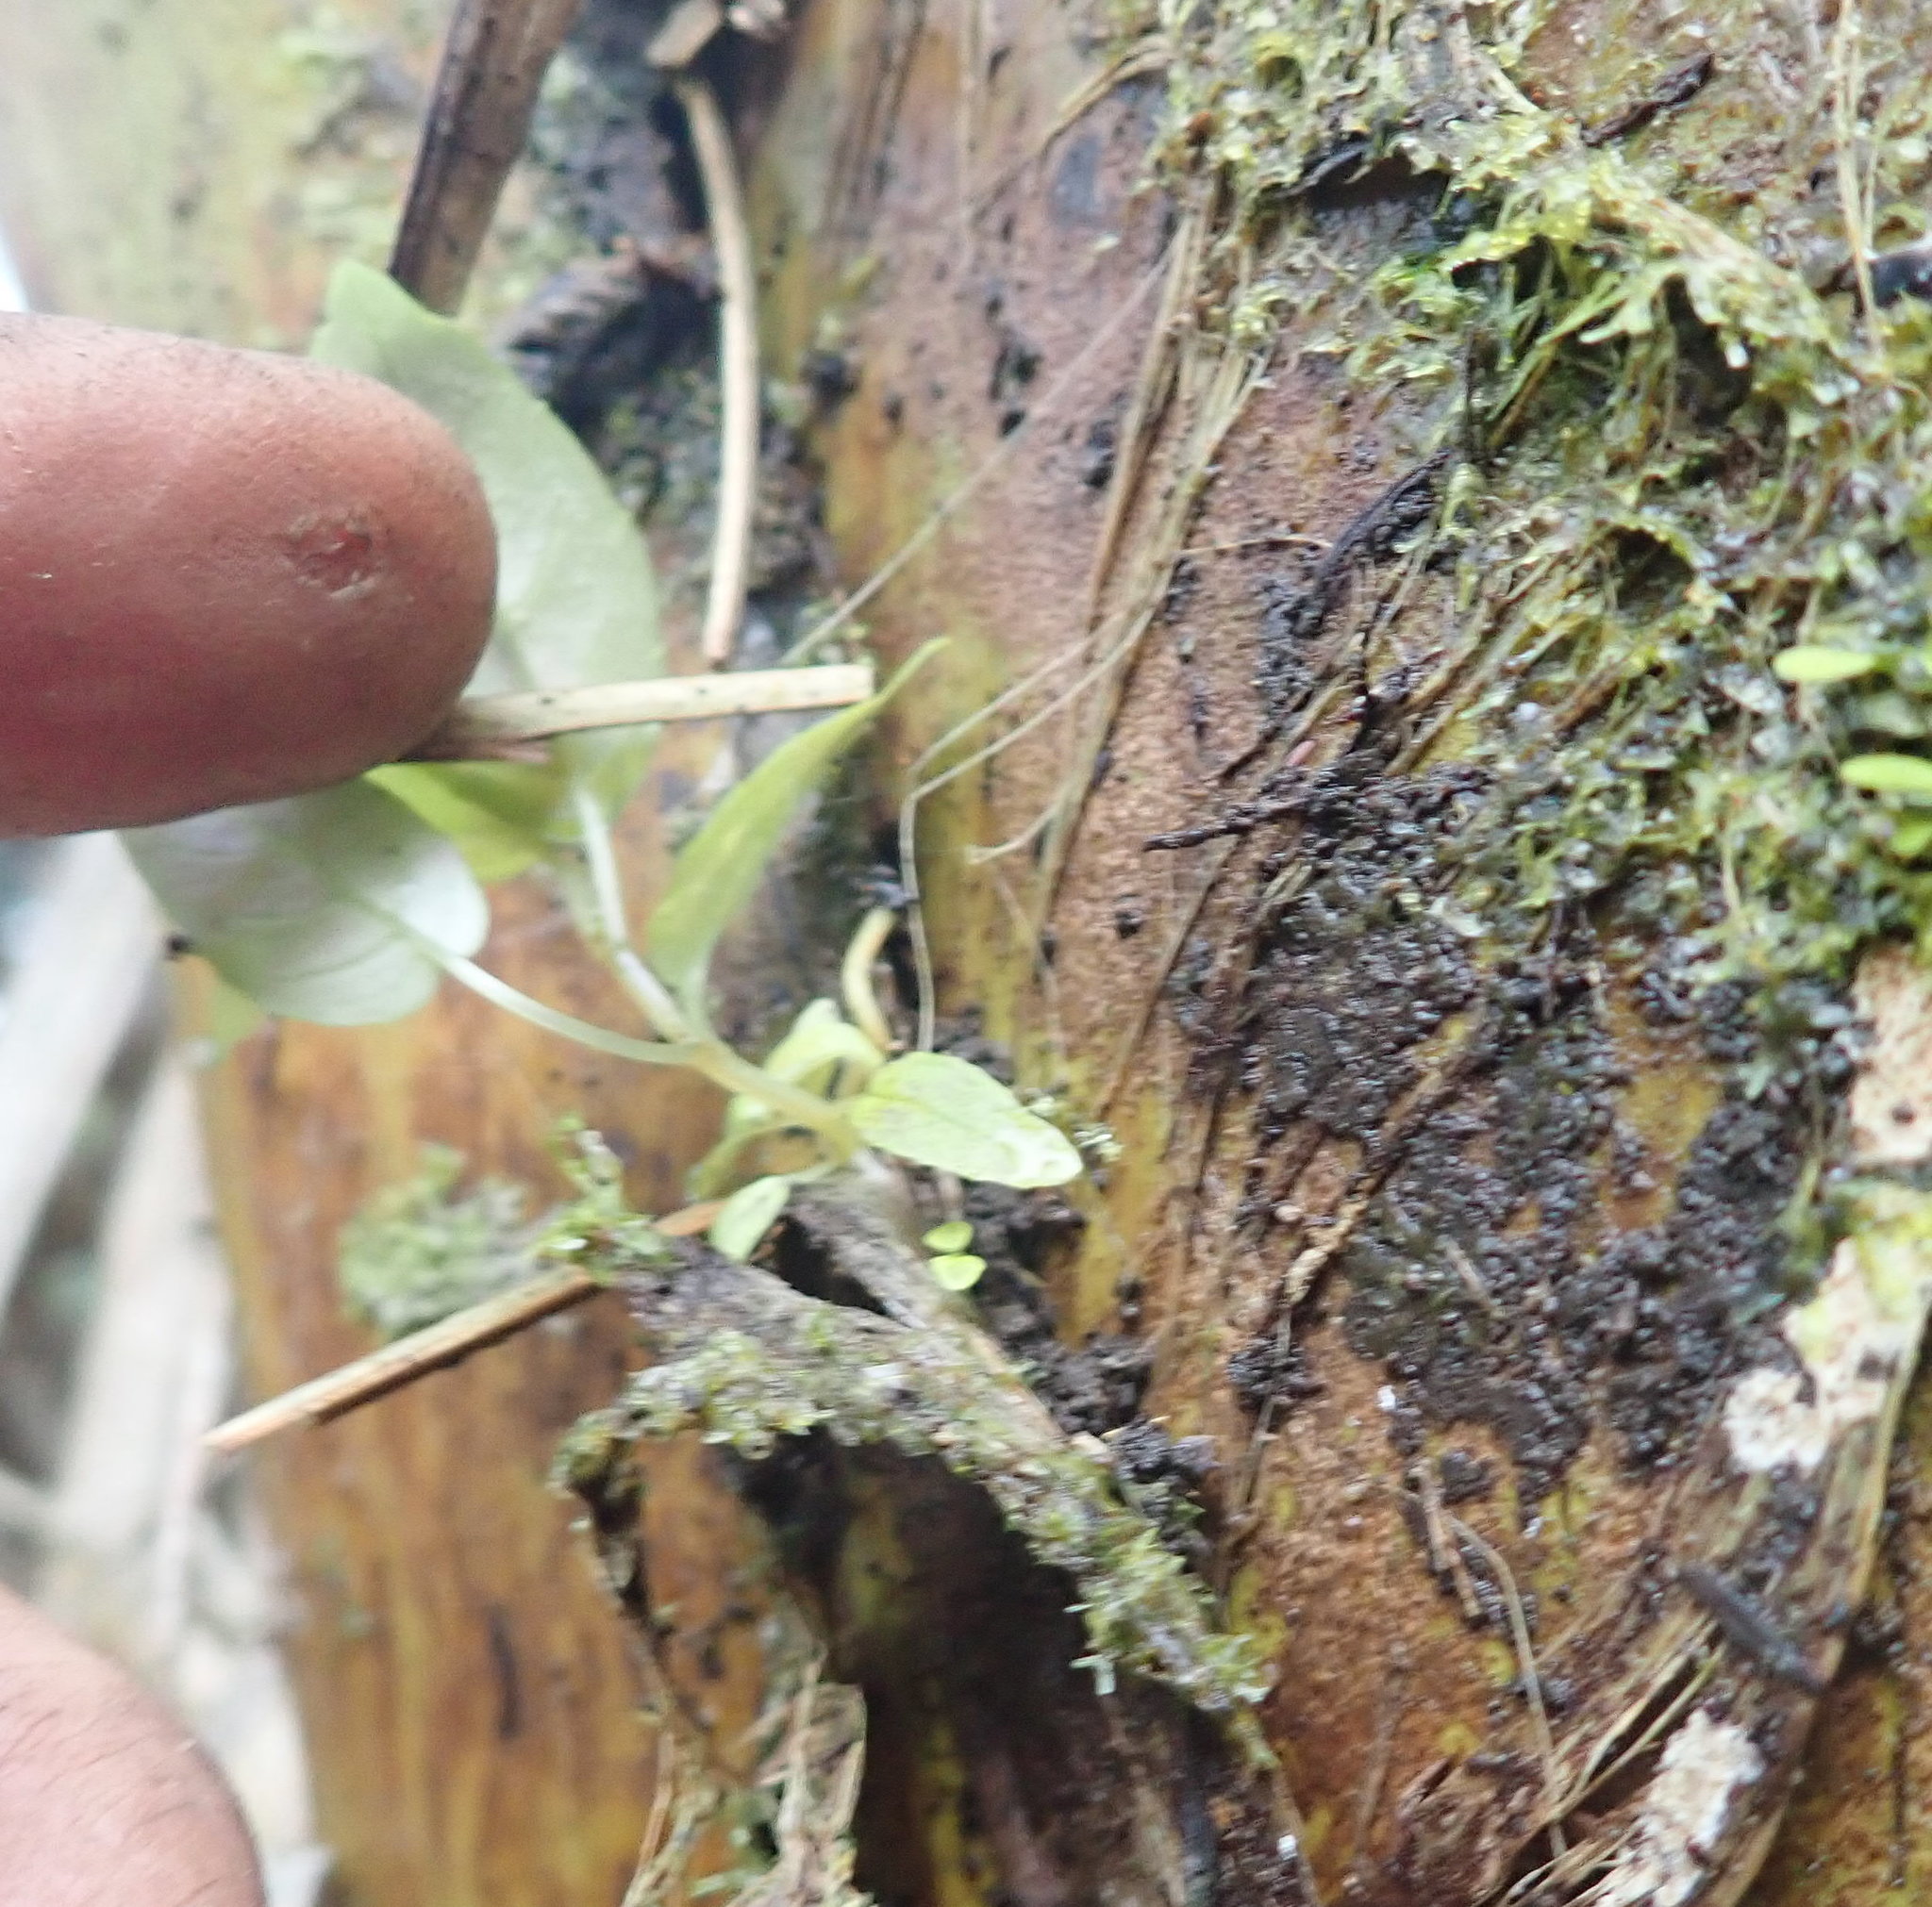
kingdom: Plantae
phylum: Tracheophyta
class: Magnoliopsida
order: Myrtales
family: Onagraceae
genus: Fuchsia
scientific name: Fuchsia excorticata
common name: Tree fuchsia
